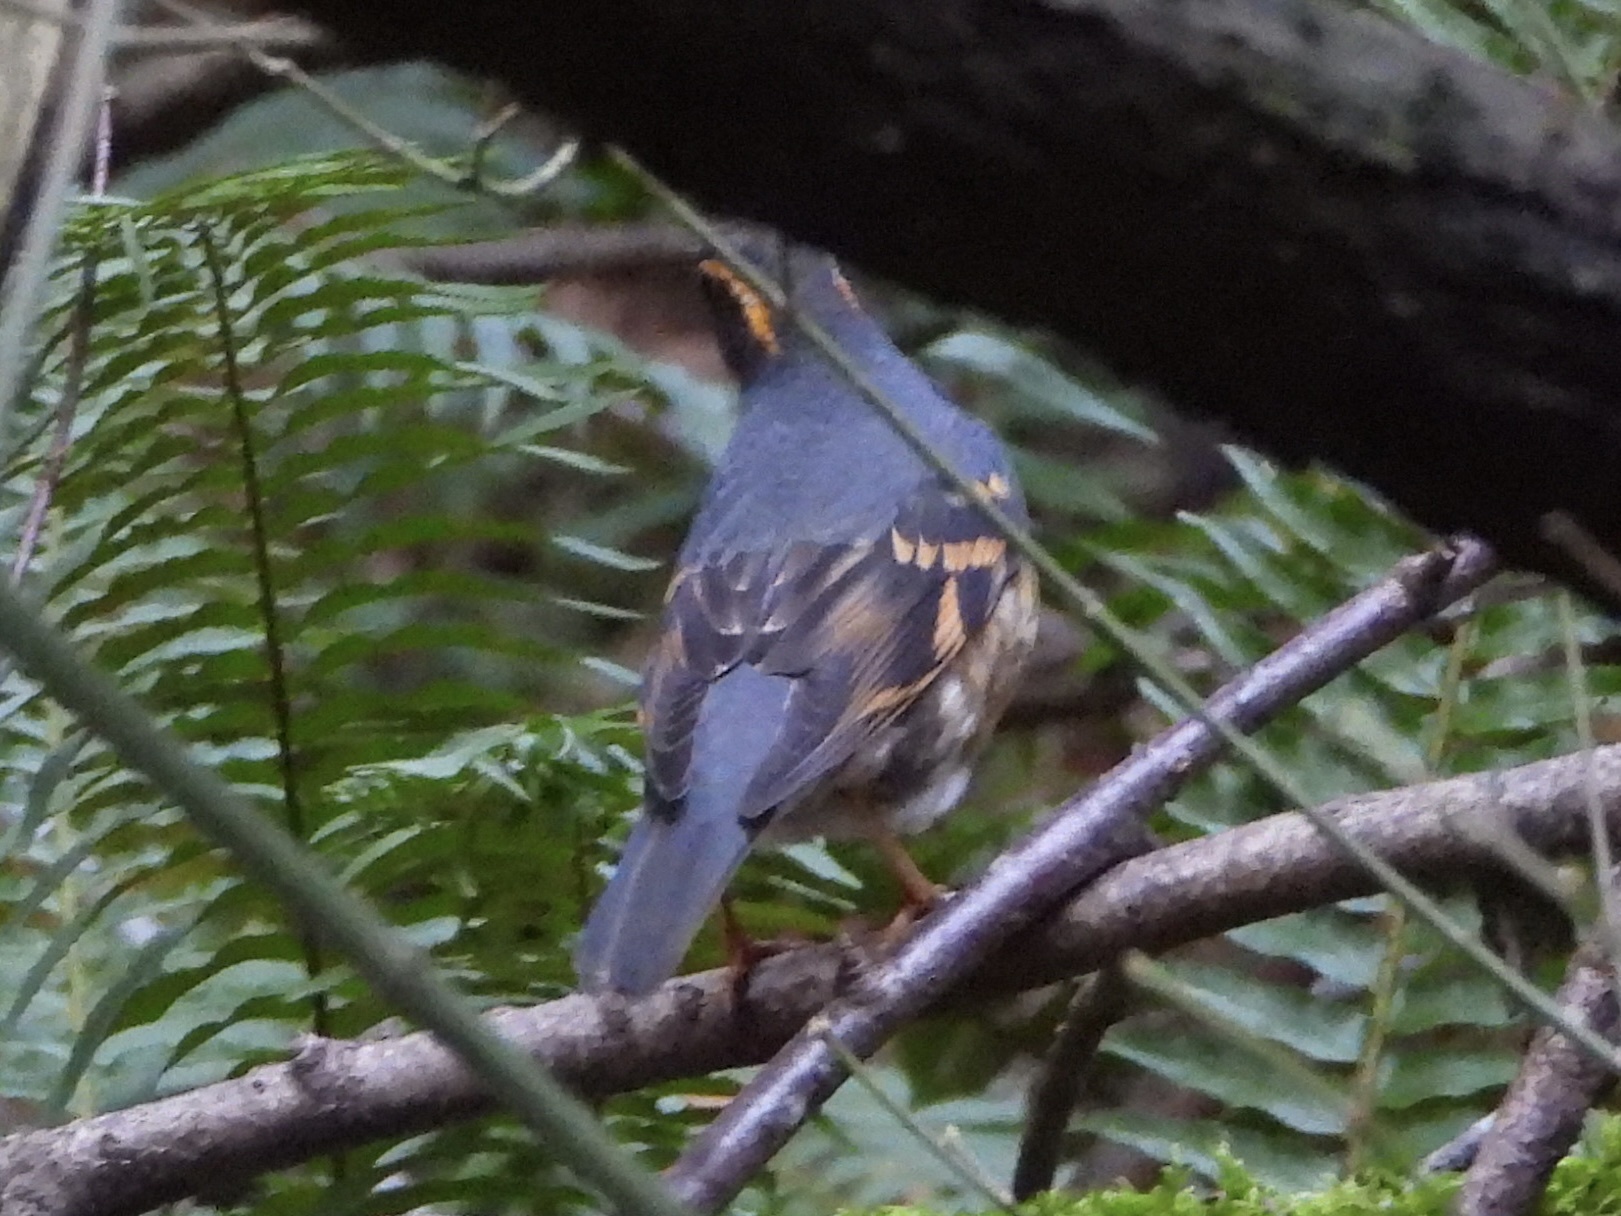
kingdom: Animalia
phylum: Chordata
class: Aves
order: Passeriformes
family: Turdidae
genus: Ixoreus
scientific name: Ixoreus naevius
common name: Varied thrush
